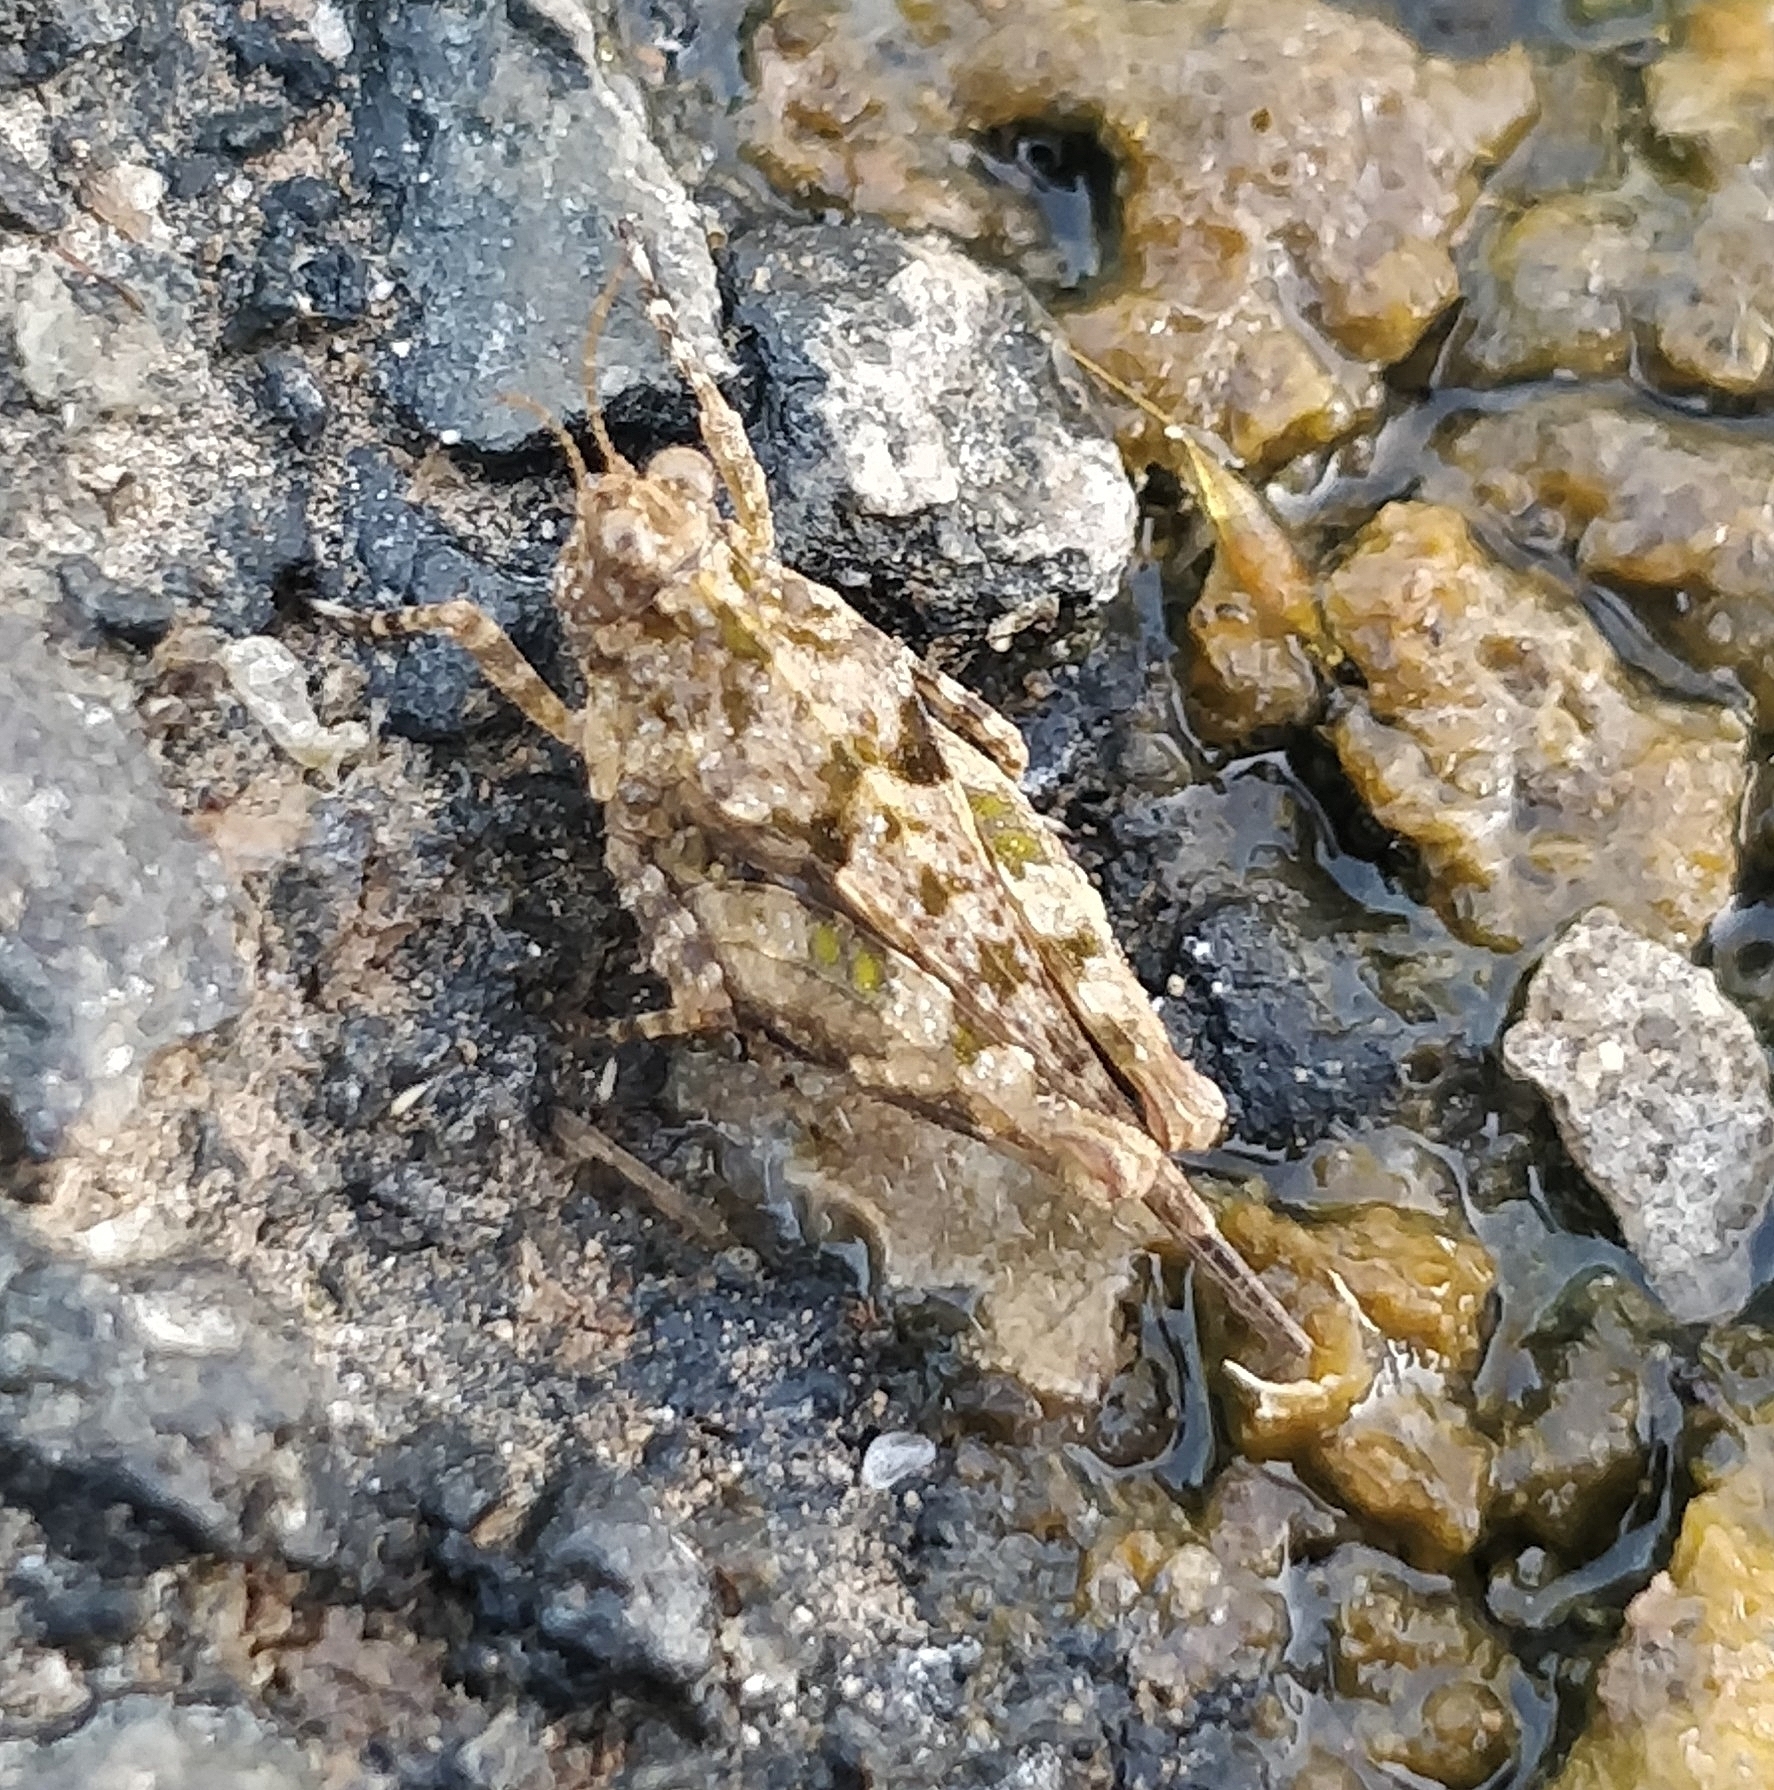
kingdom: Animalia
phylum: Arthropoda
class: Insecta
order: Orthoptera
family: Tetrigidae
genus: Paratettix
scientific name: Paratettix meridionalis
